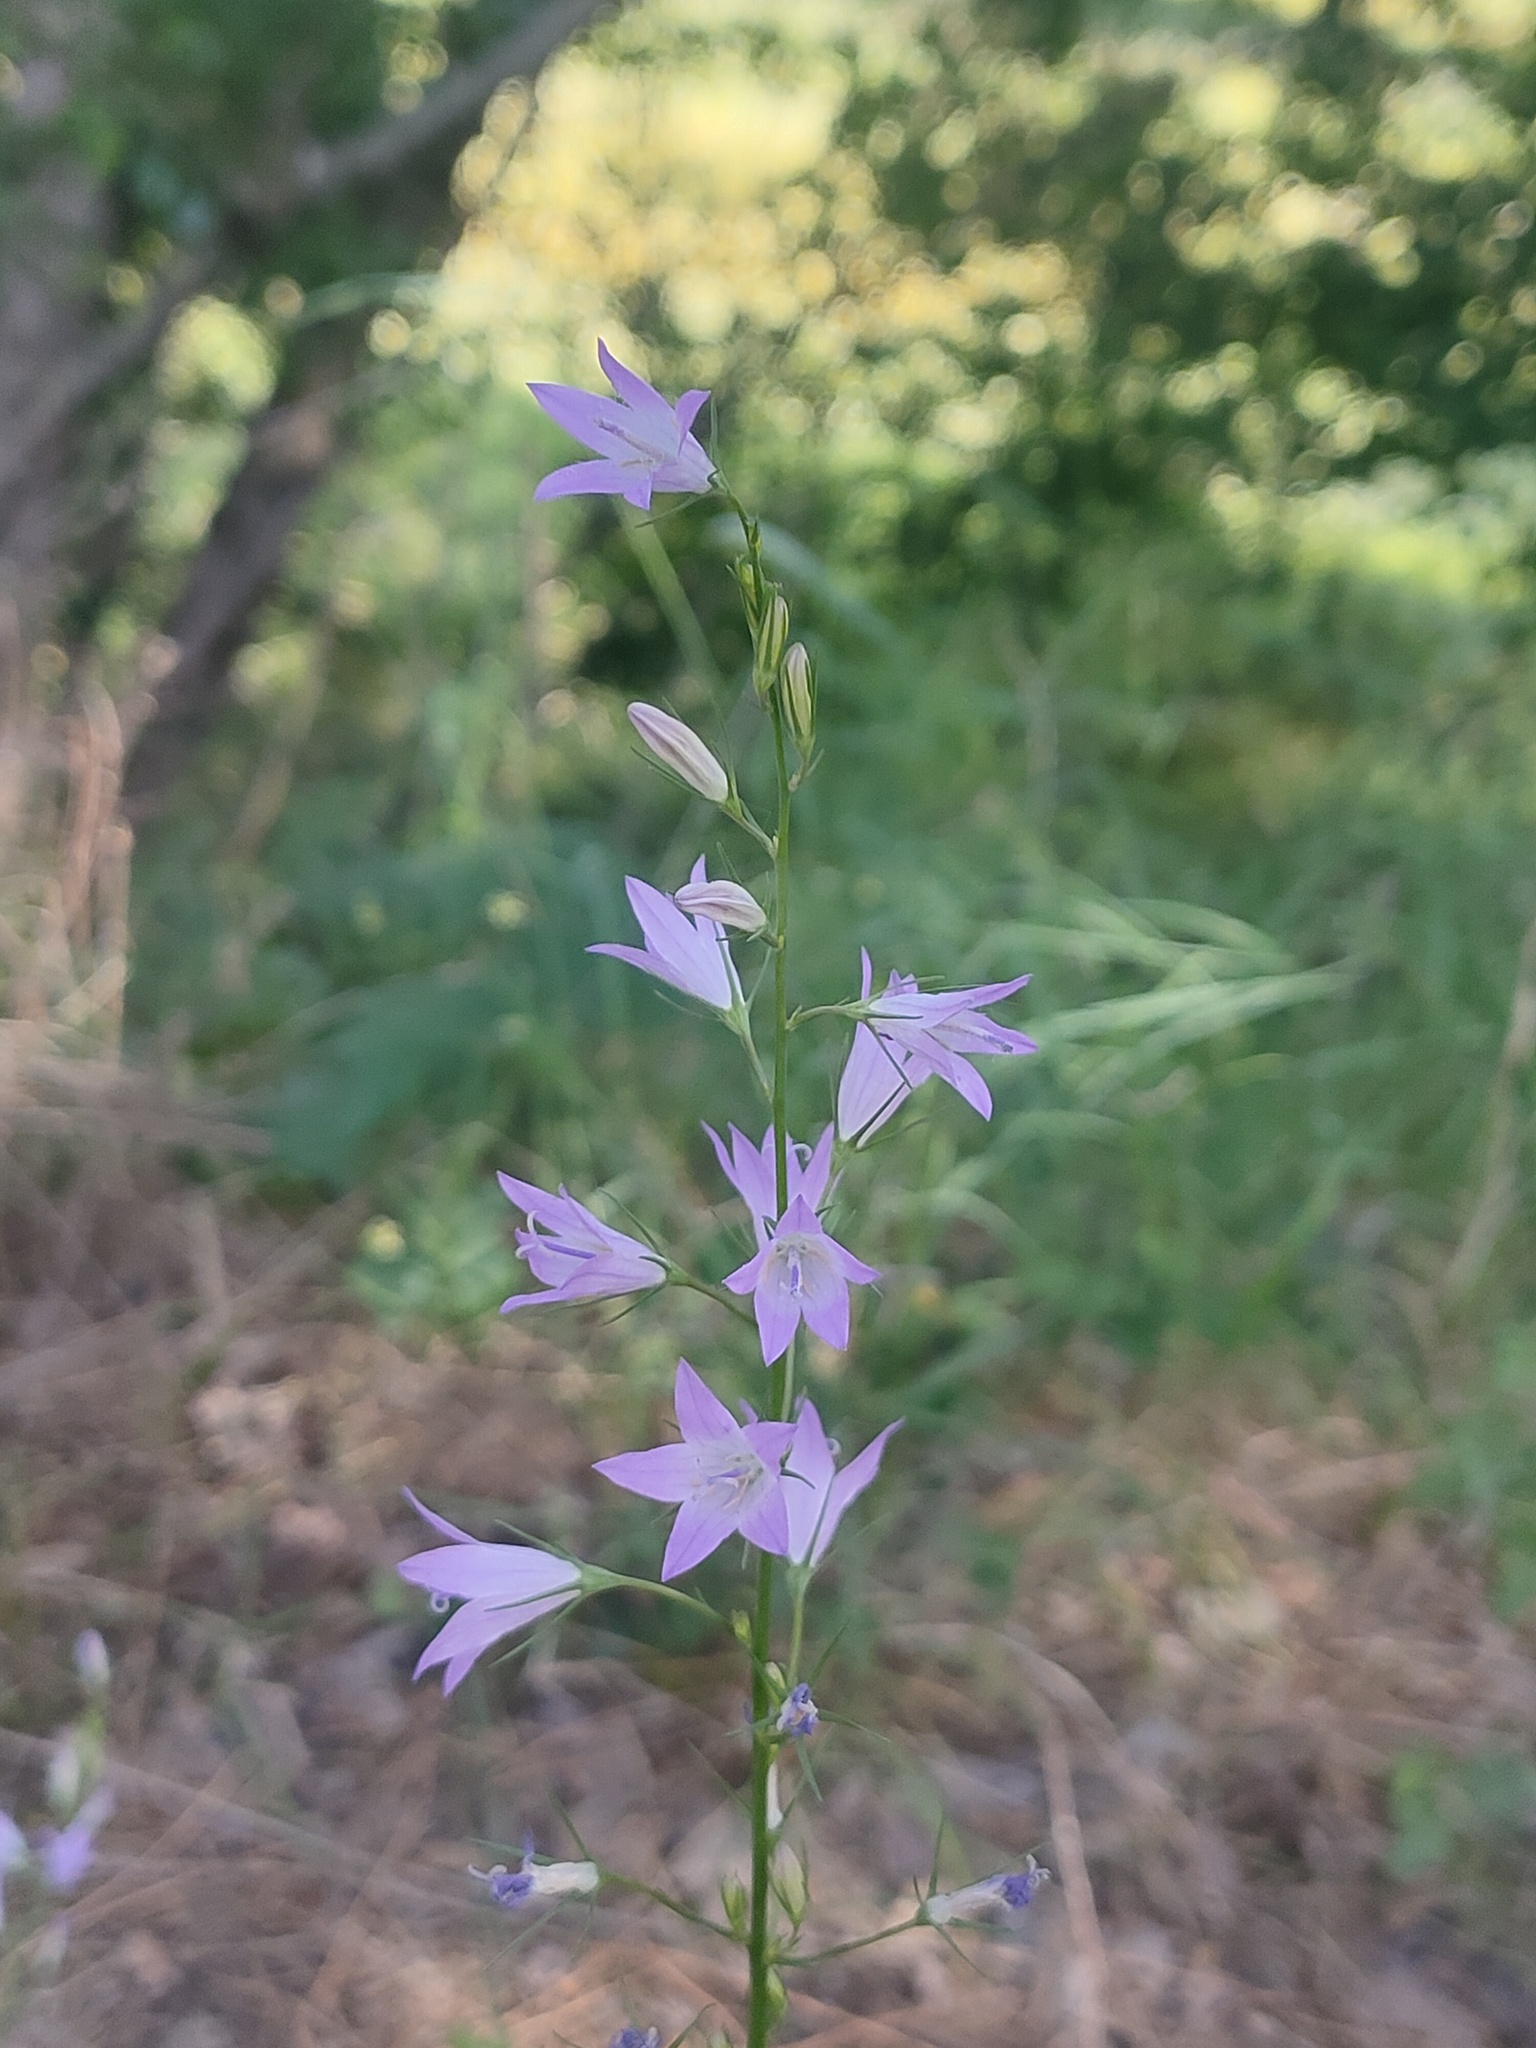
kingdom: Plantae
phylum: Tracheophyta
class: Magnoliopsida
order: Asterales
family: Campanulaceae
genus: Campanula
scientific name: Campanula rapunculus
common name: Rampion bellflower
